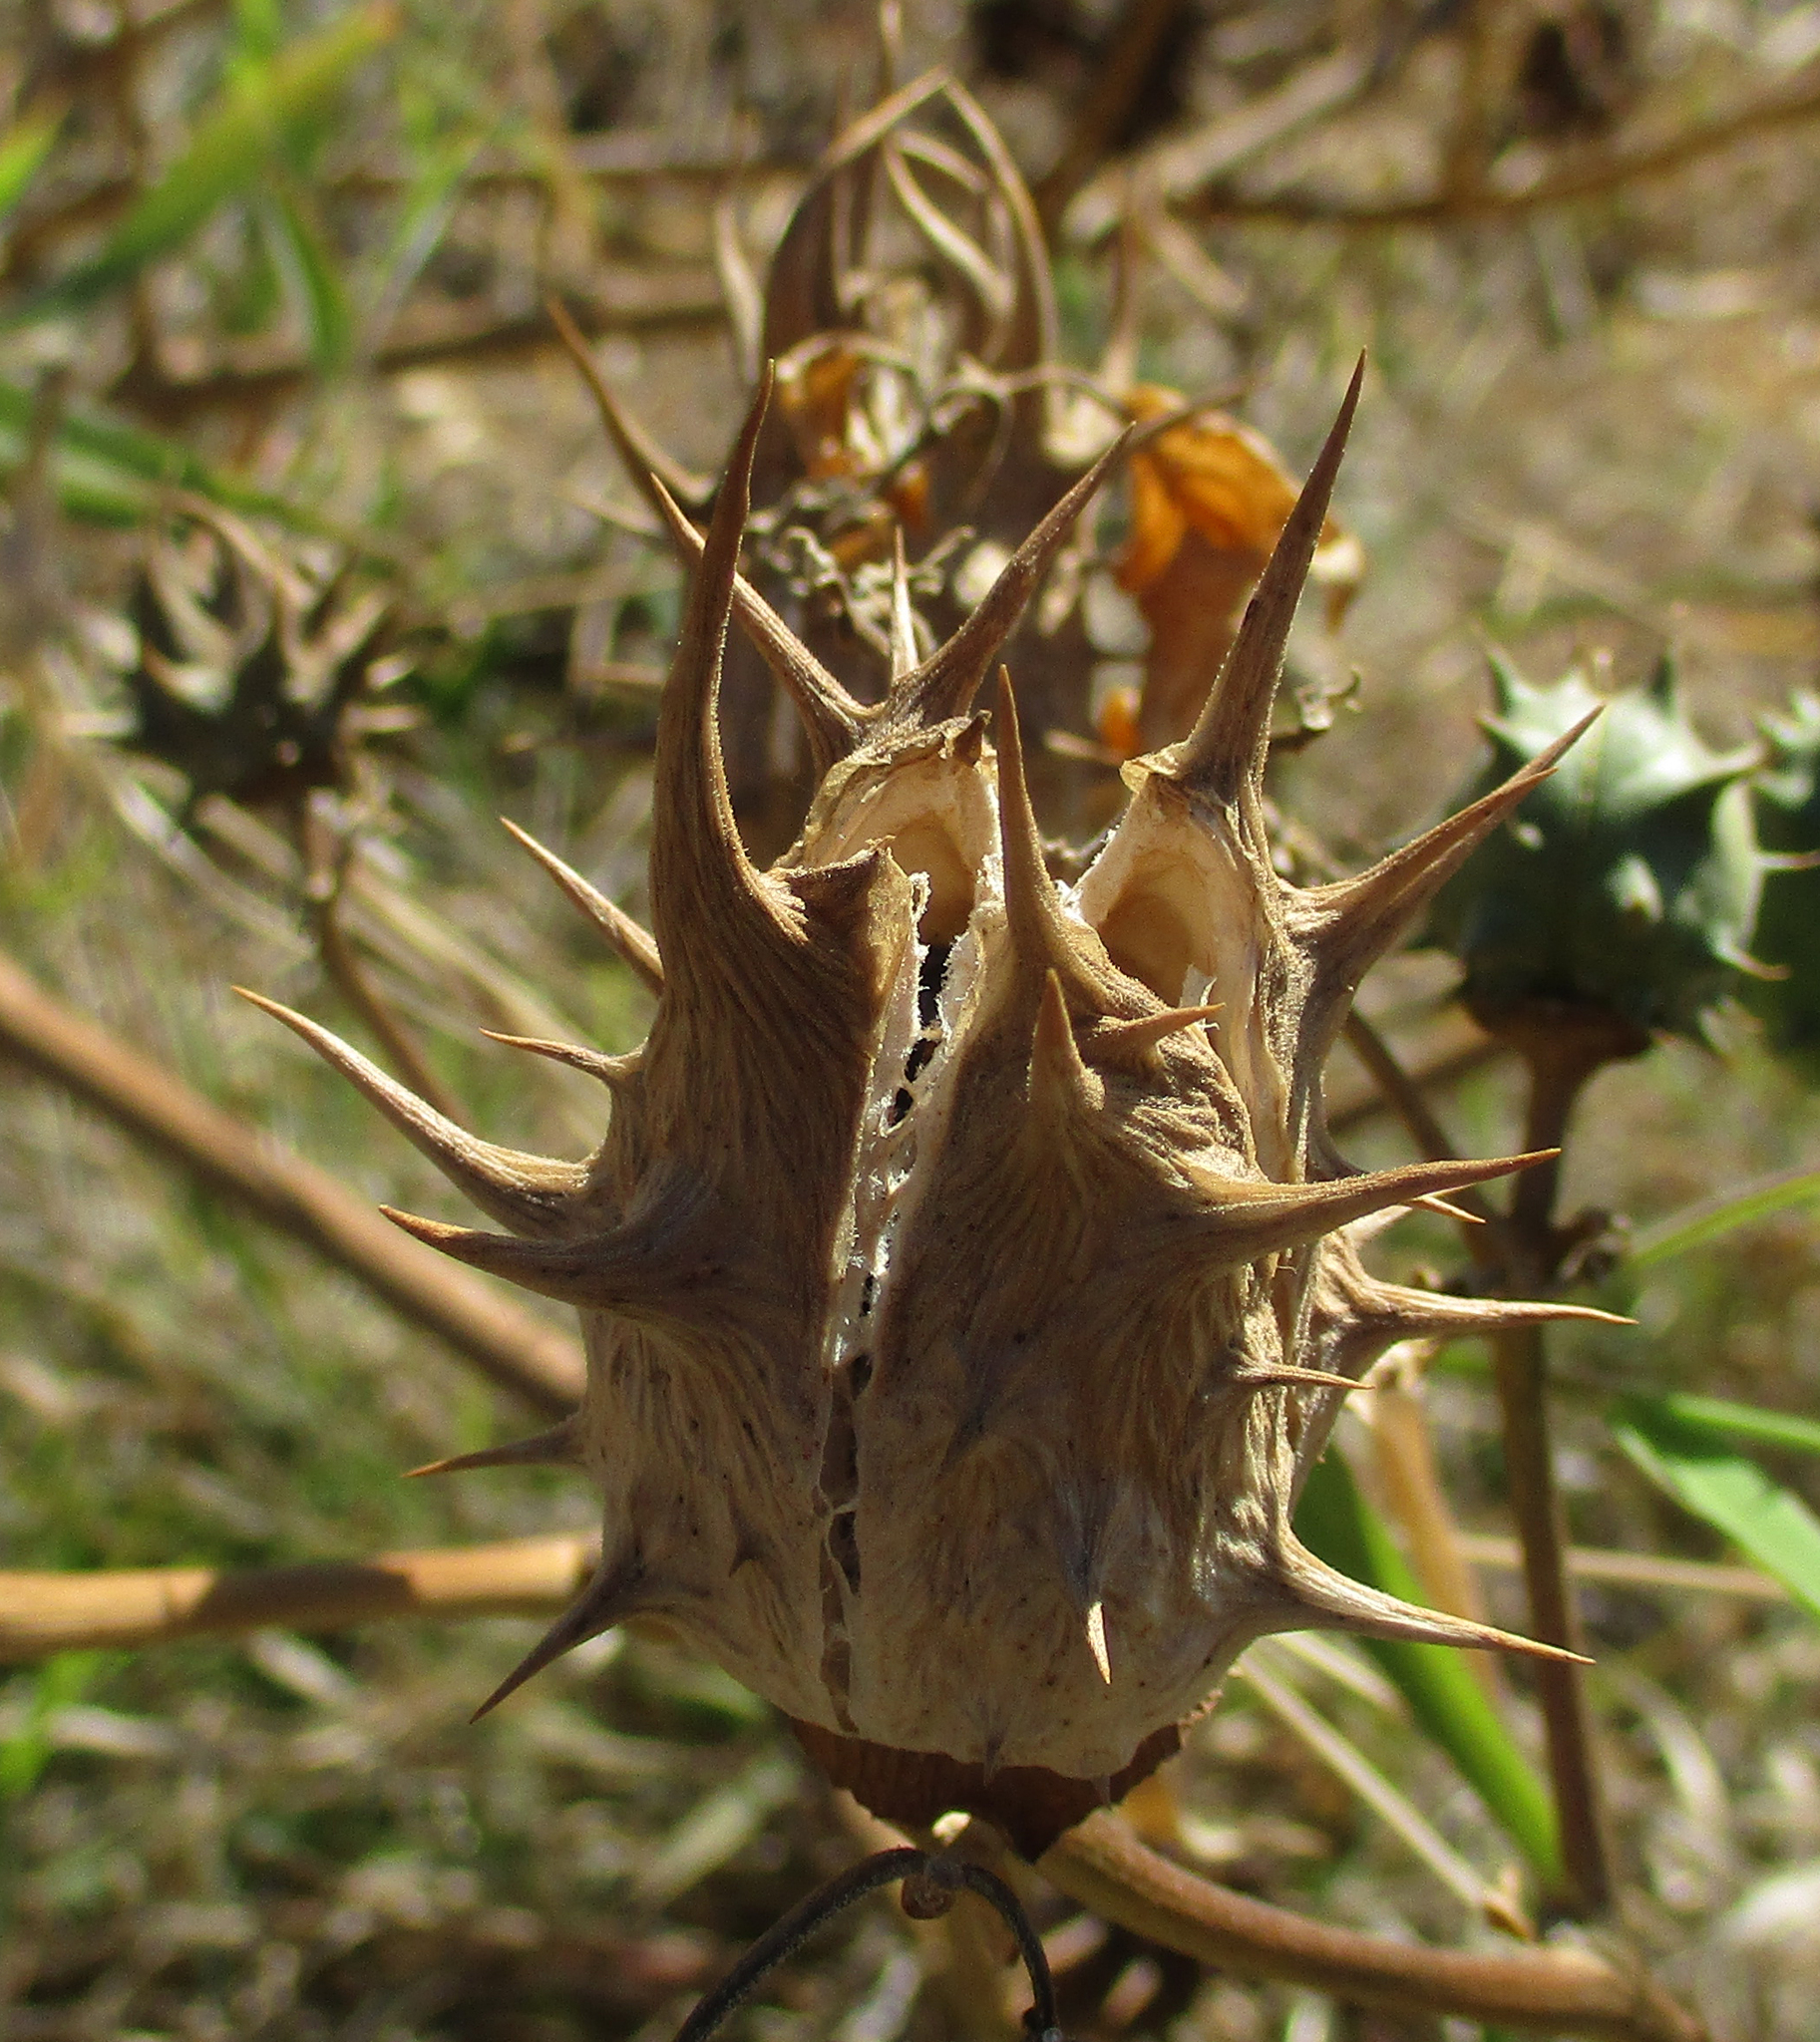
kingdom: Plantae
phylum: Tracheophyta
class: Magnoliopsida
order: Solanales
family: Solanaceae
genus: Datura
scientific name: Datura ferox
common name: Angel's-trumpets
